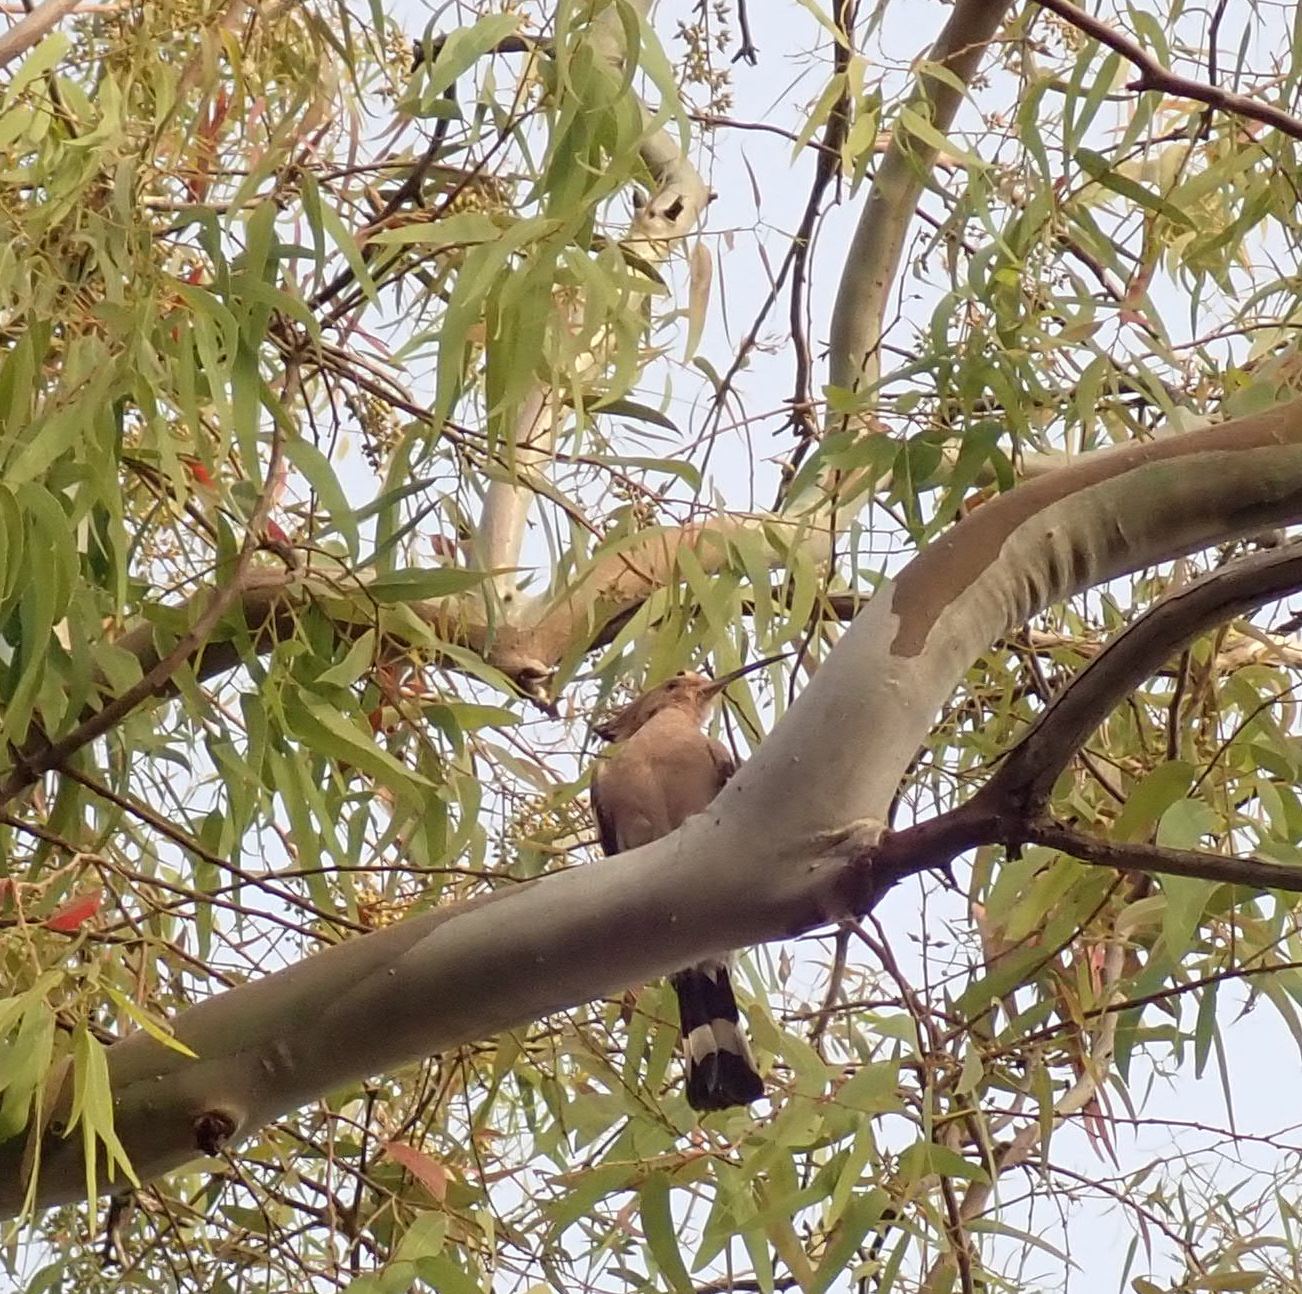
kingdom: Animalia
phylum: Chordata
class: Aves
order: Bucerotiformes
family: Upupidae
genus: Upupa
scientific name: Upupa epops
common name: Eurasian hoopoe
